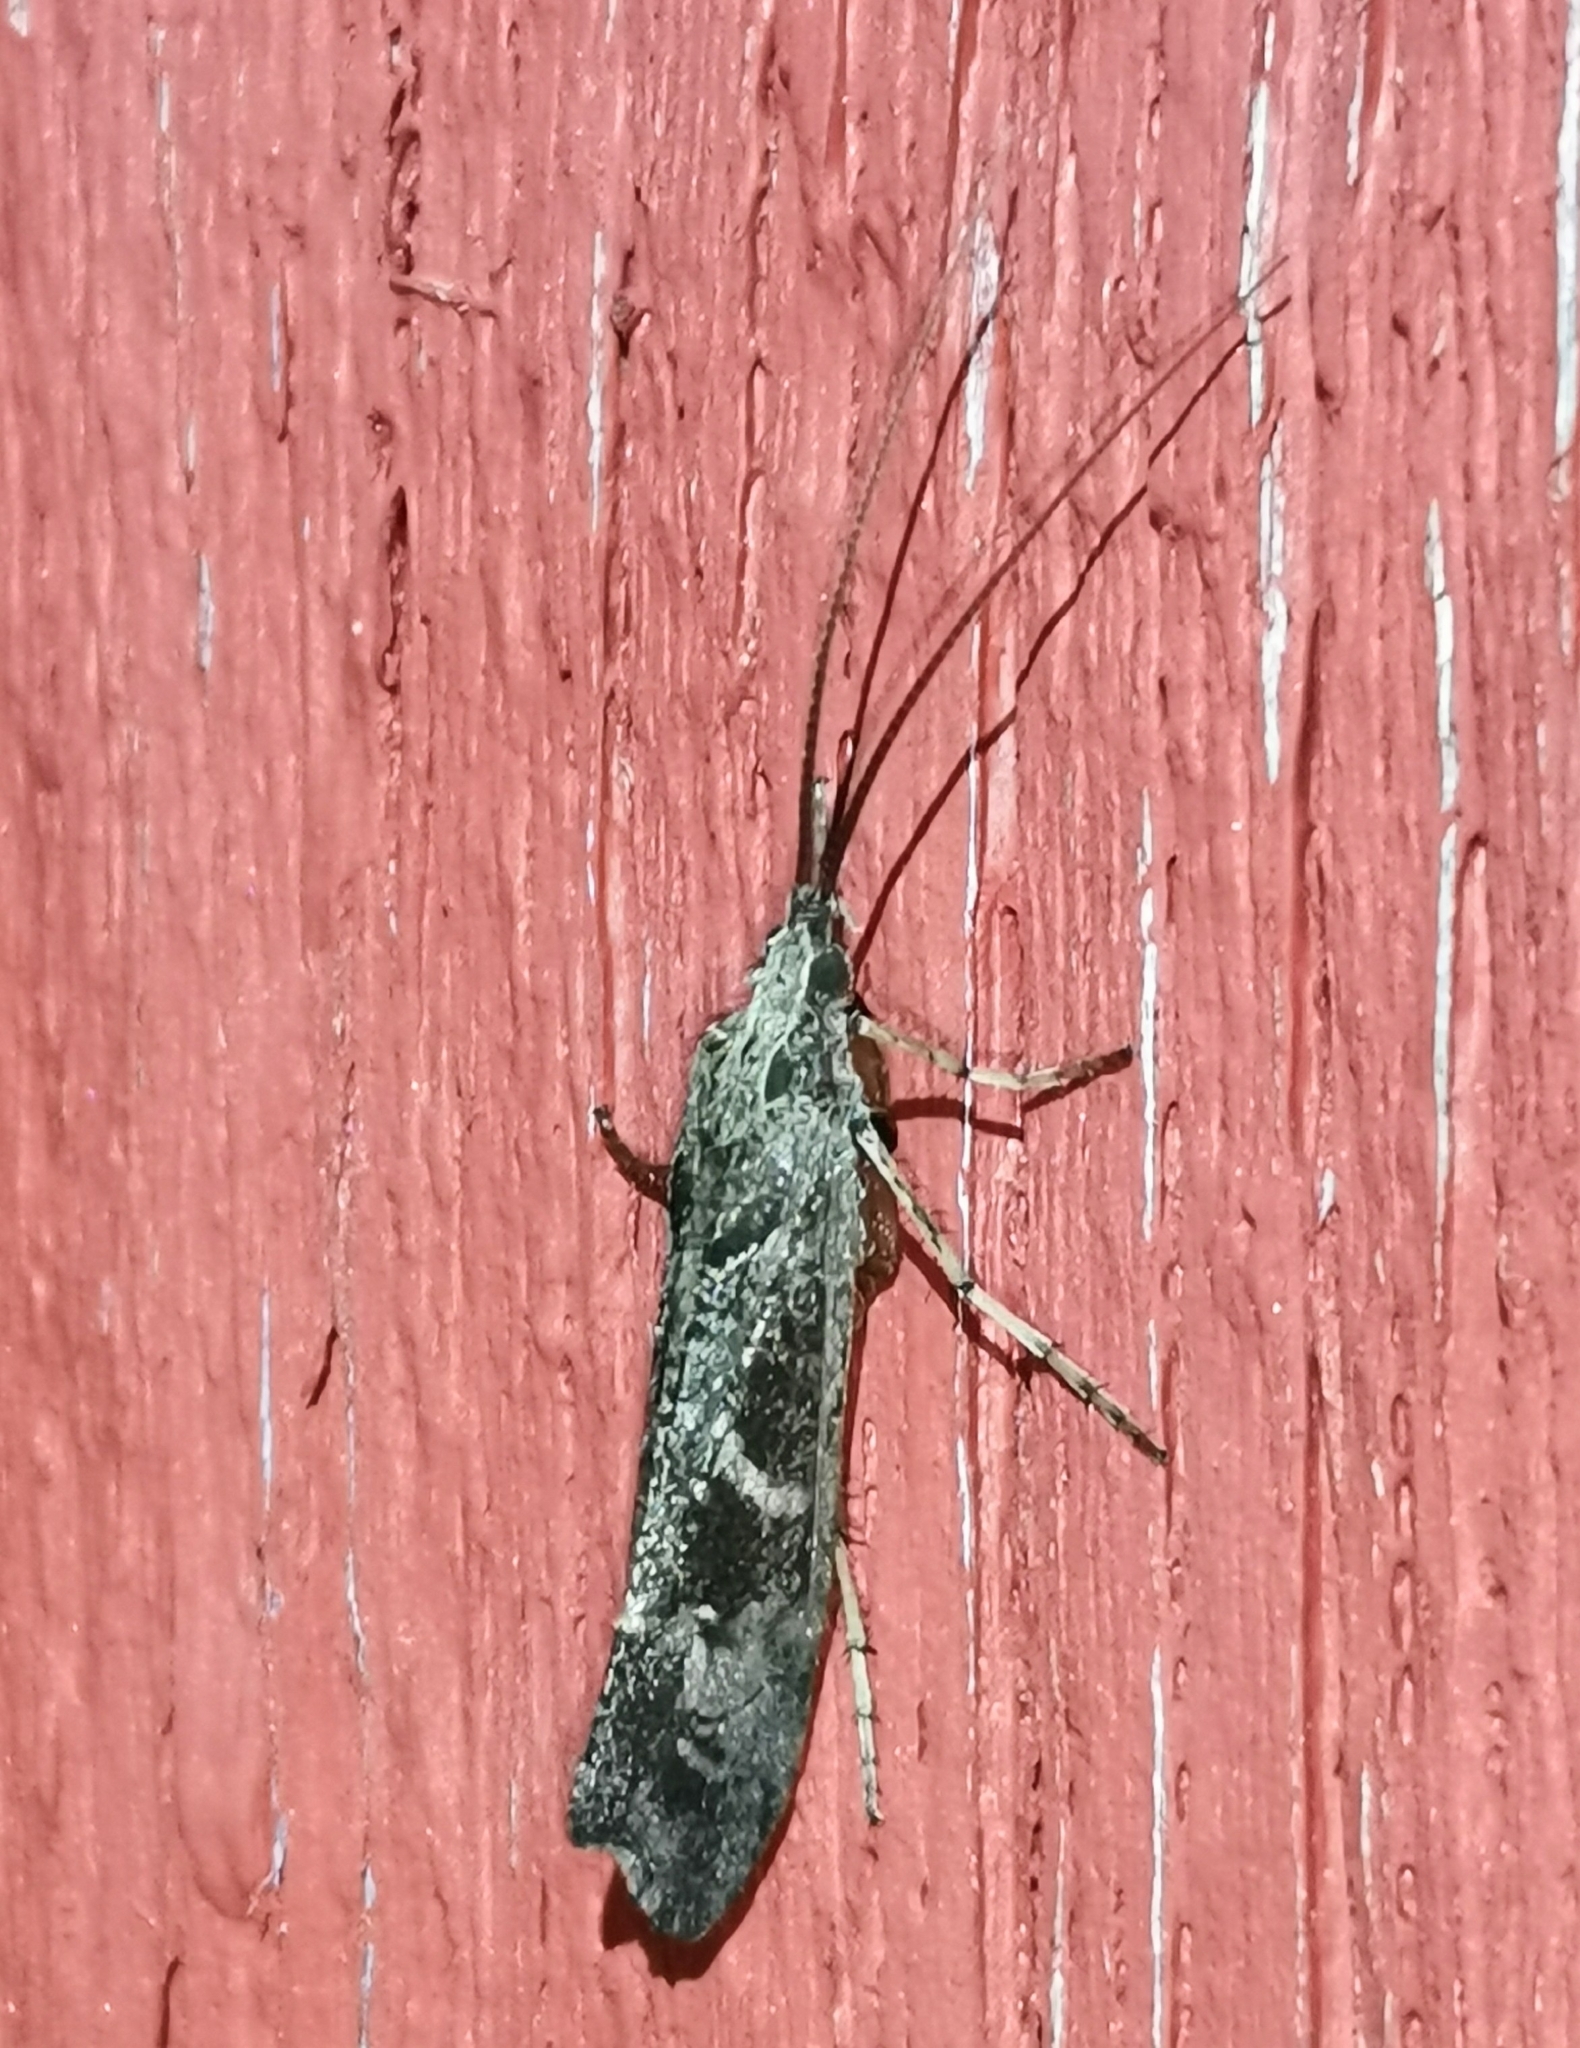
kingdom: Animalia
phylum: Arthropoda
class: Insecta
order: Trichoptera
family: Limnephilidae
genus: Glyphotaelius
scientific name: Glyphotaelius pellucidus
